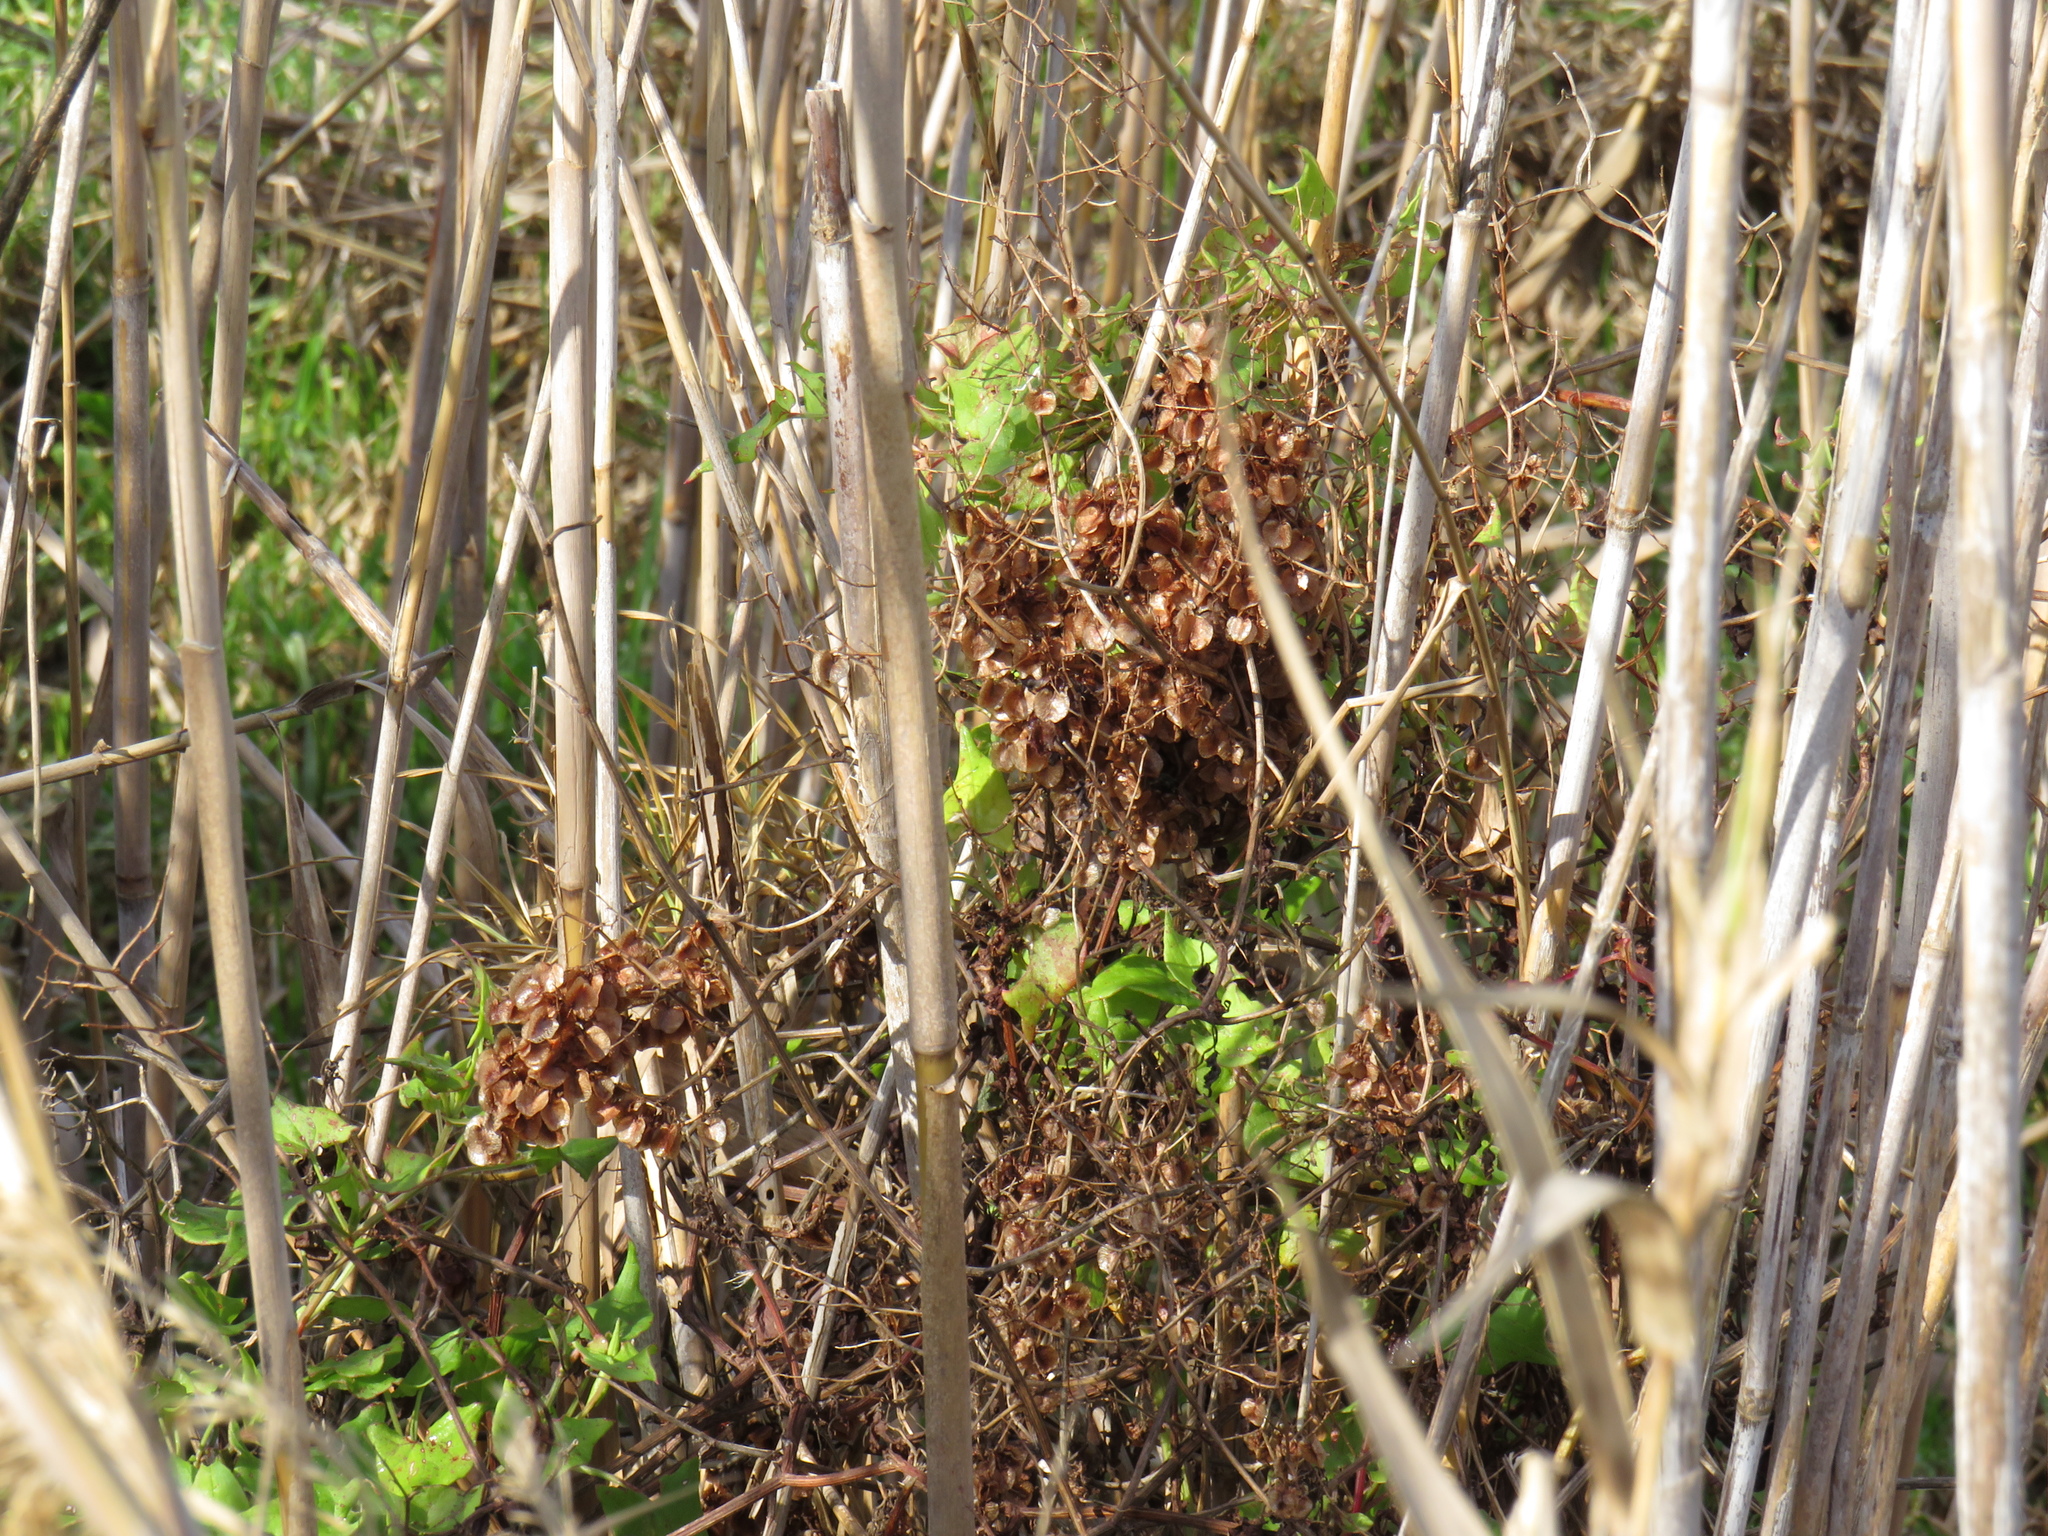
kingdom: Plantae
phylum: Tracheophyta
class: Magnoliopsida
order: Caryophyllales
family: Polygonaceae
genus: Rumex
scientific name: Rumex sagittatus
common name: Climbing dock
